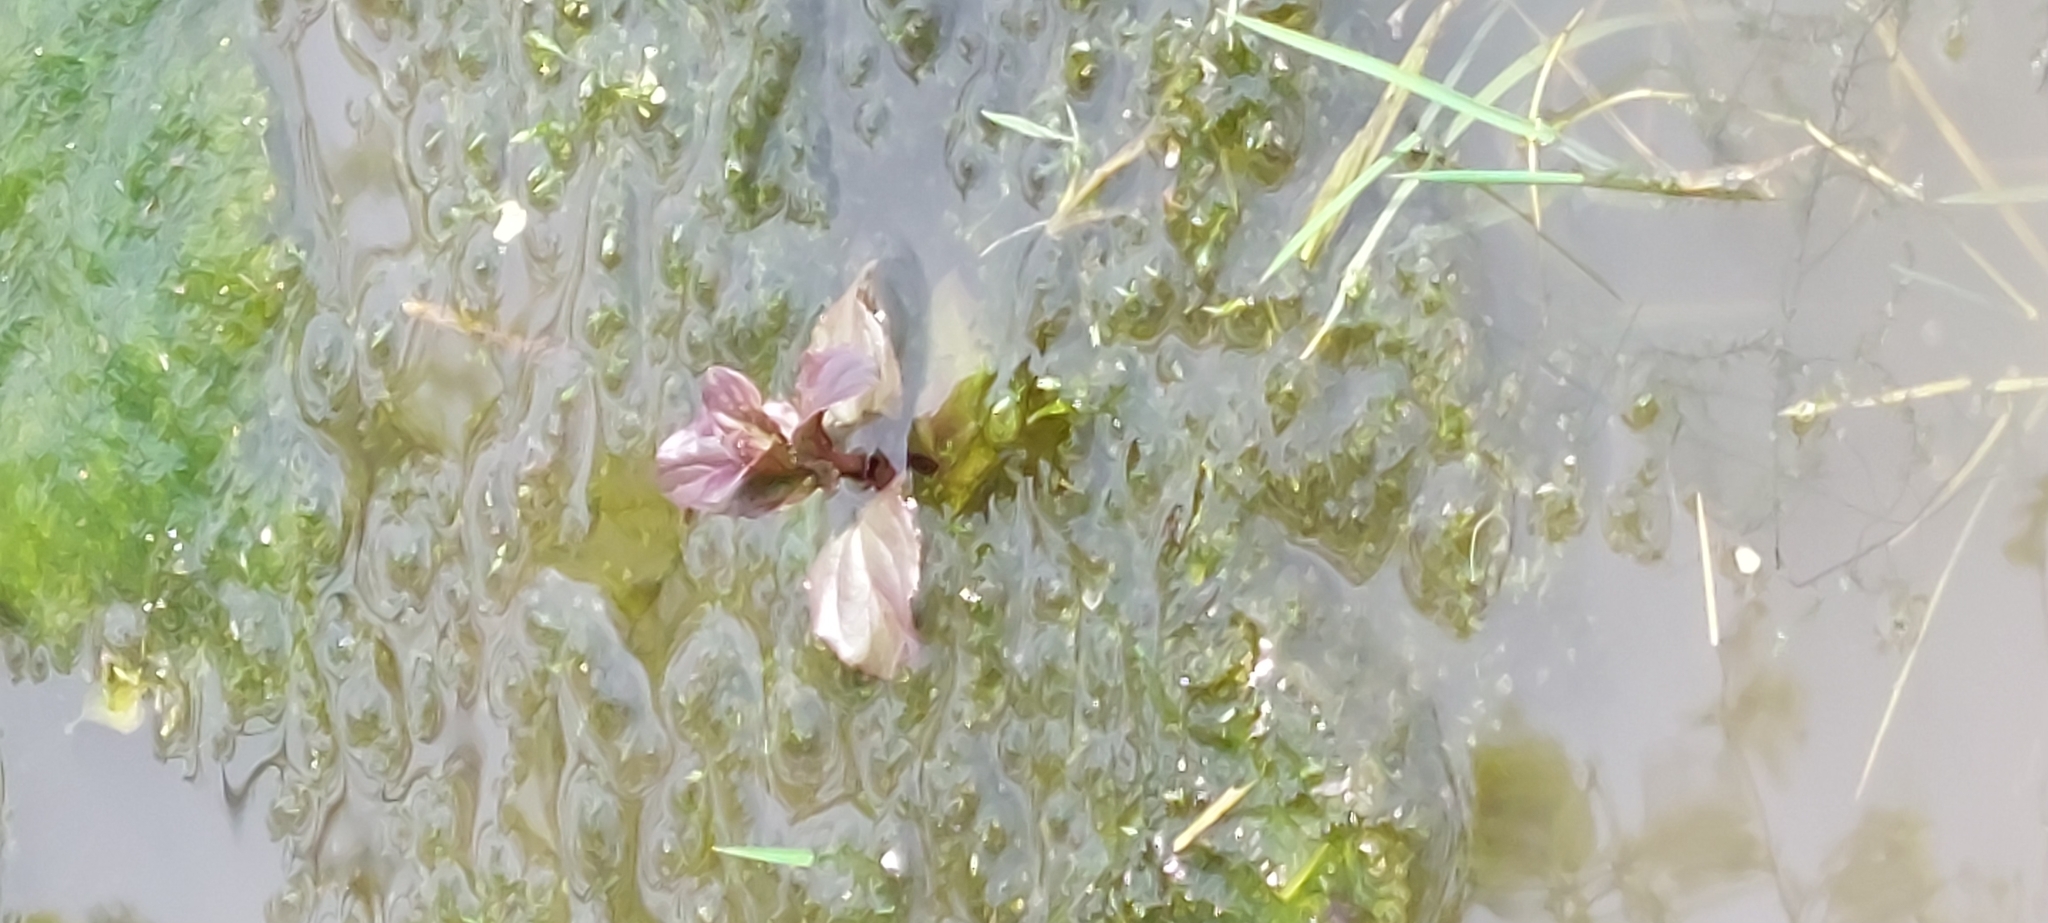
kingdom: Plantae
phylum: Tracheophyta
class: Magnoliopsida
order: Lamiales
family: Lamiaceae
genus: Mentha
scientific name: Mentha aquatica
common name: Water mint
